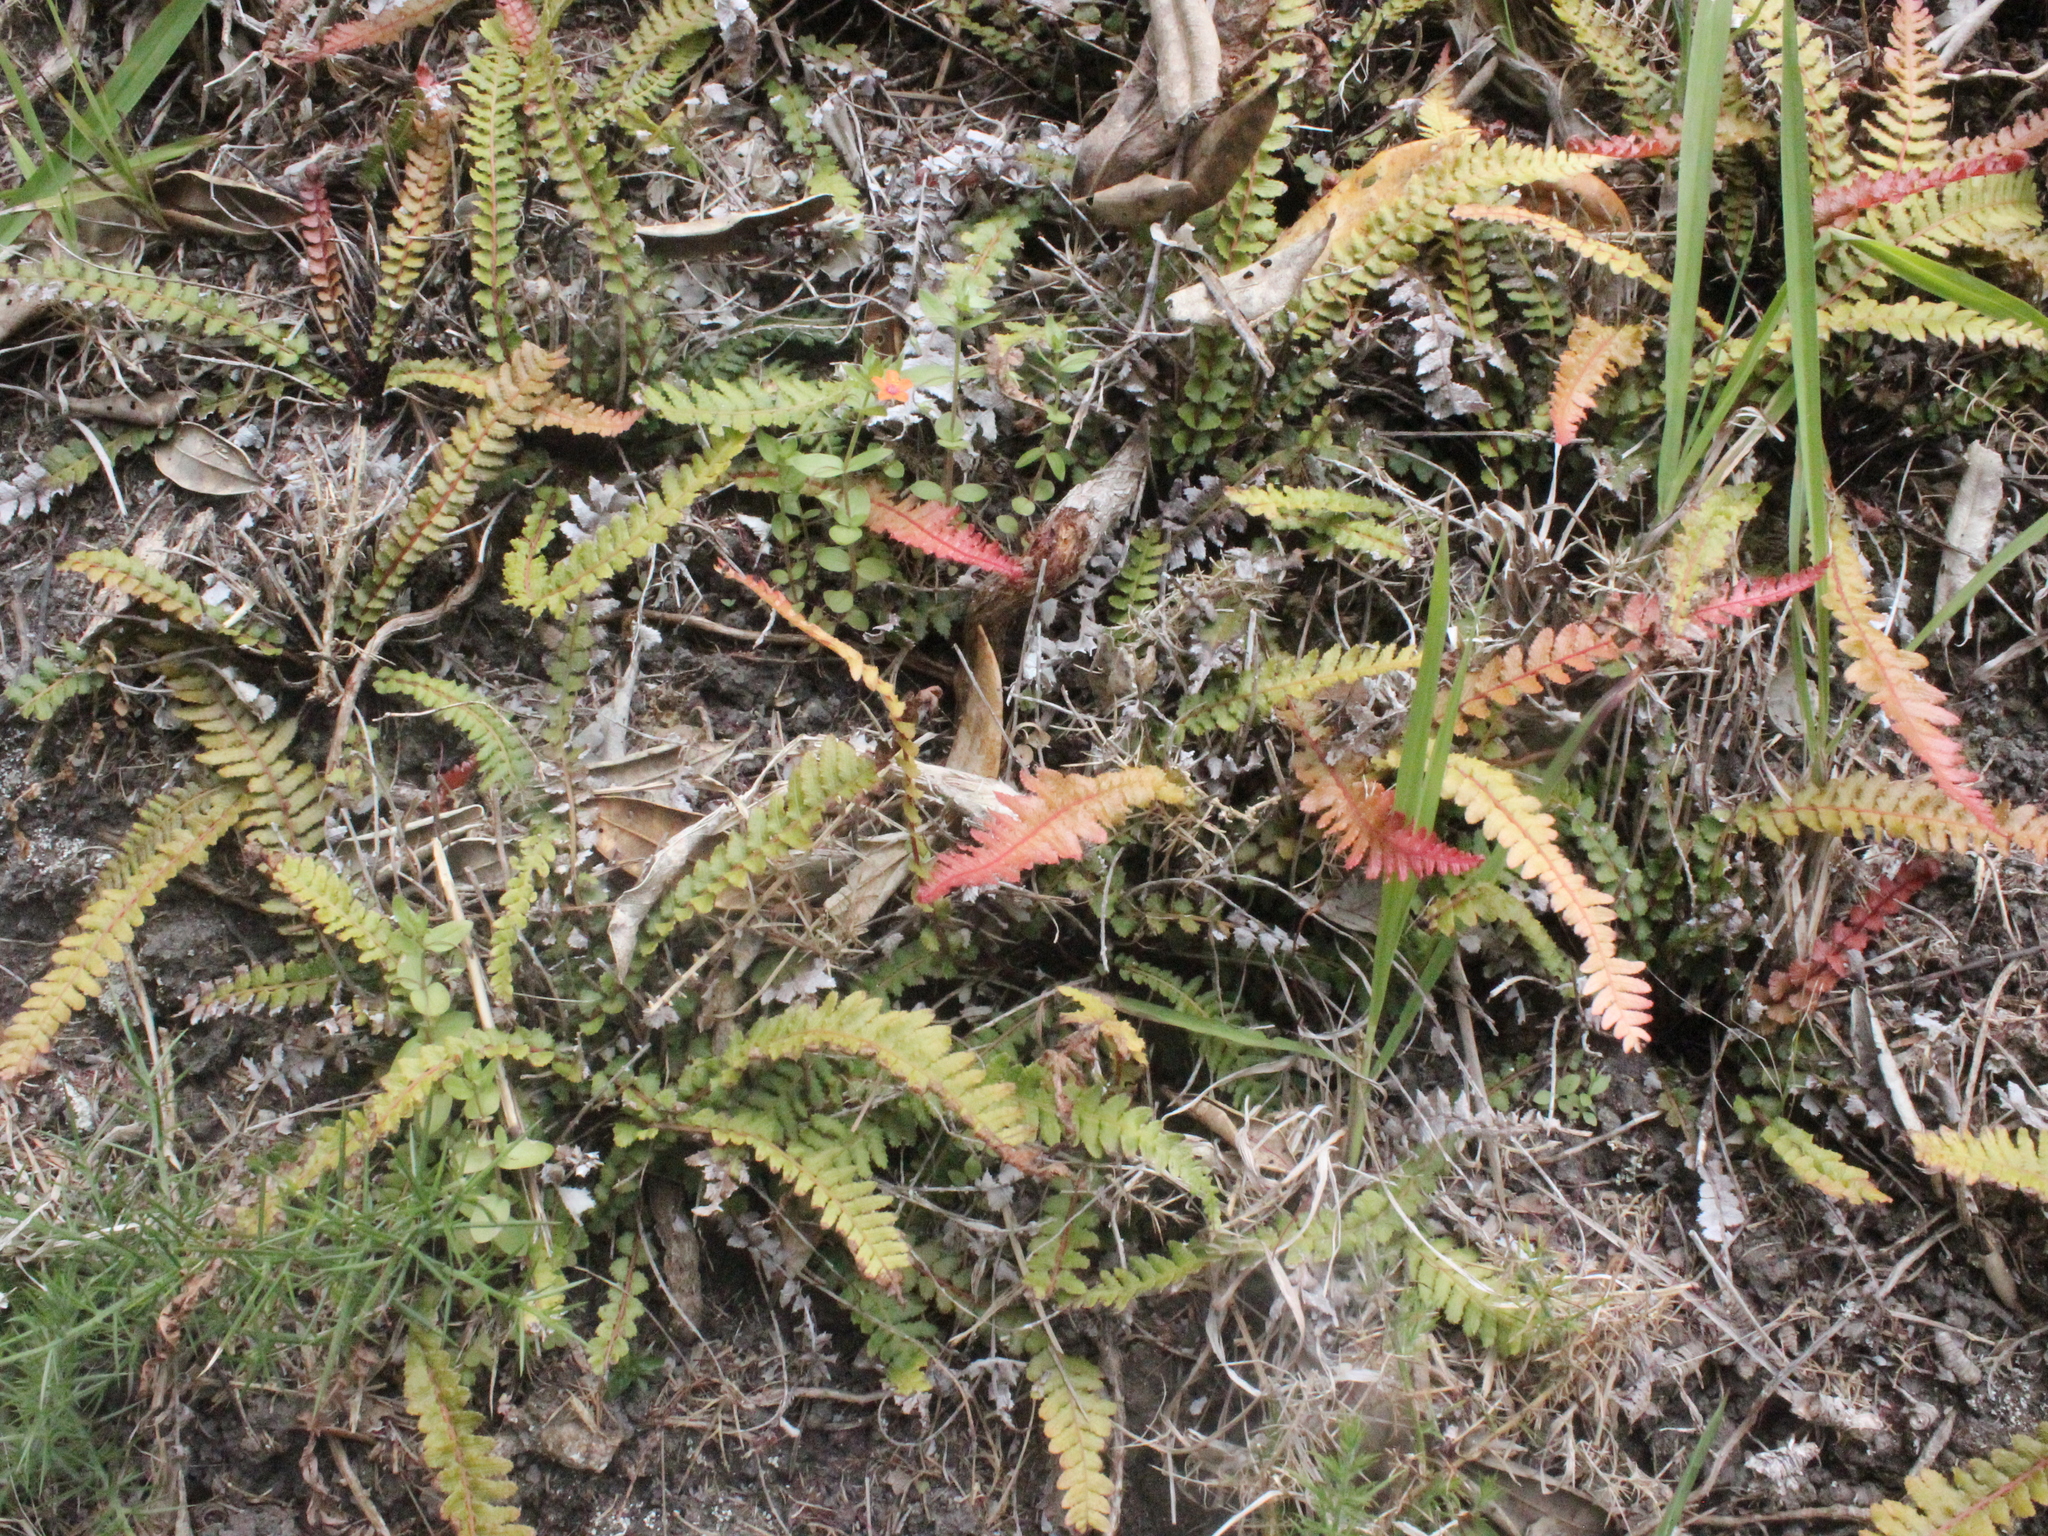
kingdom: Plantae
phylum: Tracheophyta
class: Polypodiopsida
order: Polypodiales
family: Blechnaceae
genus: Doodia
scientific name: Doodia australis
